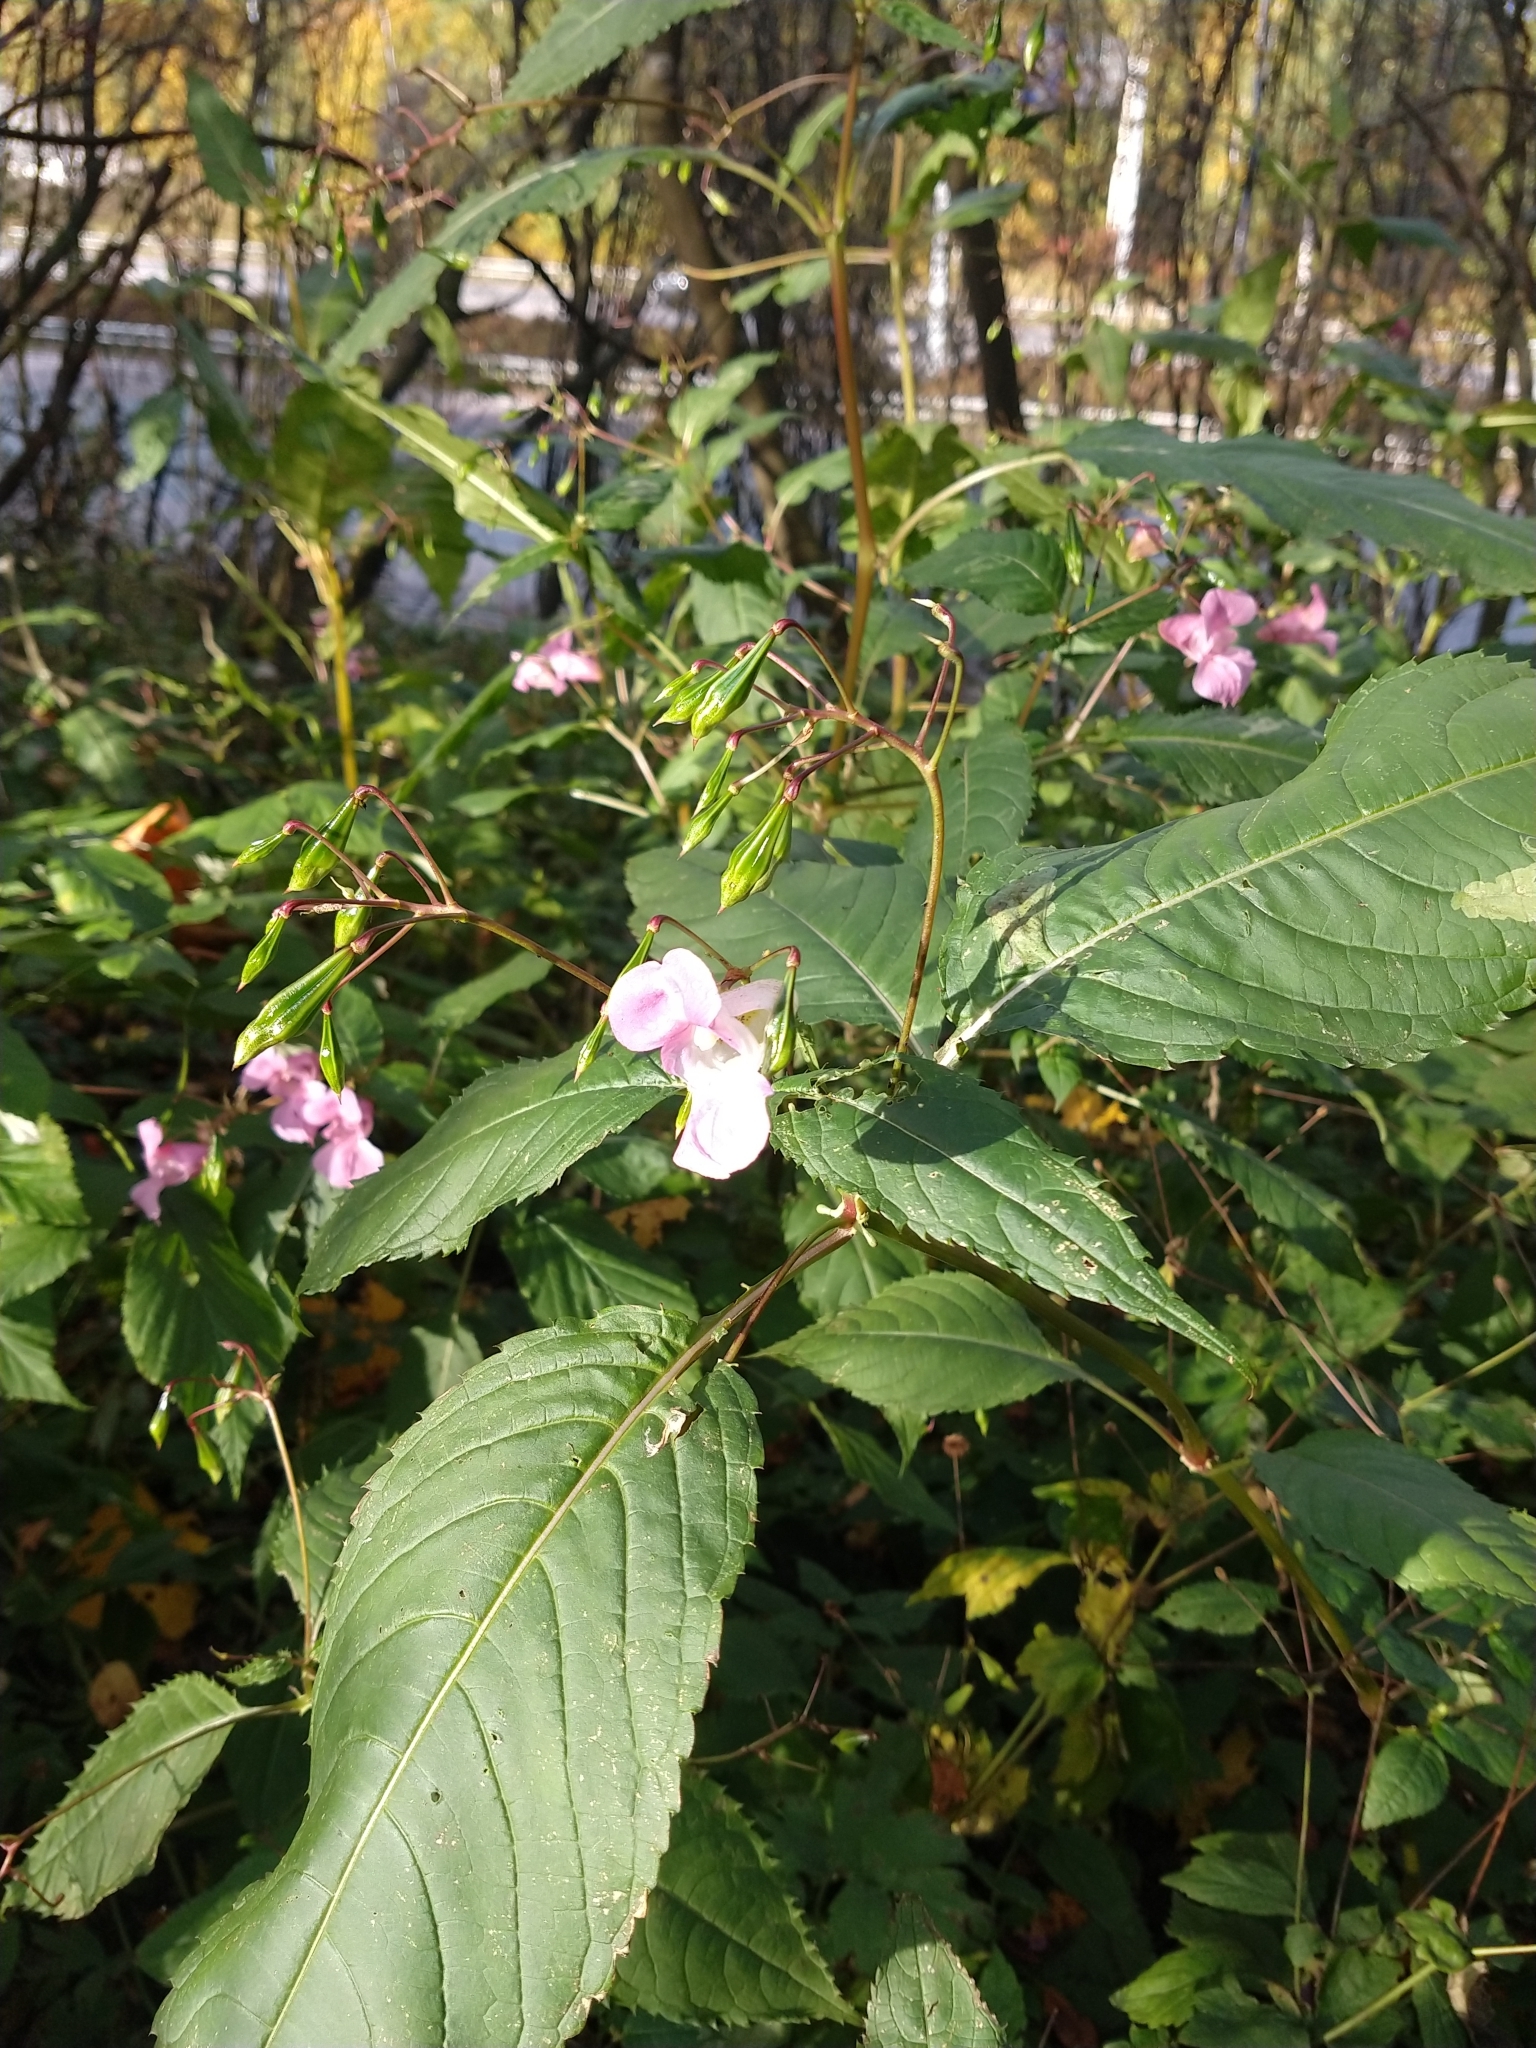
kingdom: Plantae
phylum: Tracheophyta
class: Magnoliopsida
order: Ericales
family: Balsaminaceae
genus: Impatiens
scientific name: Impatiens glandulifera
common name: Himalayan balsam
